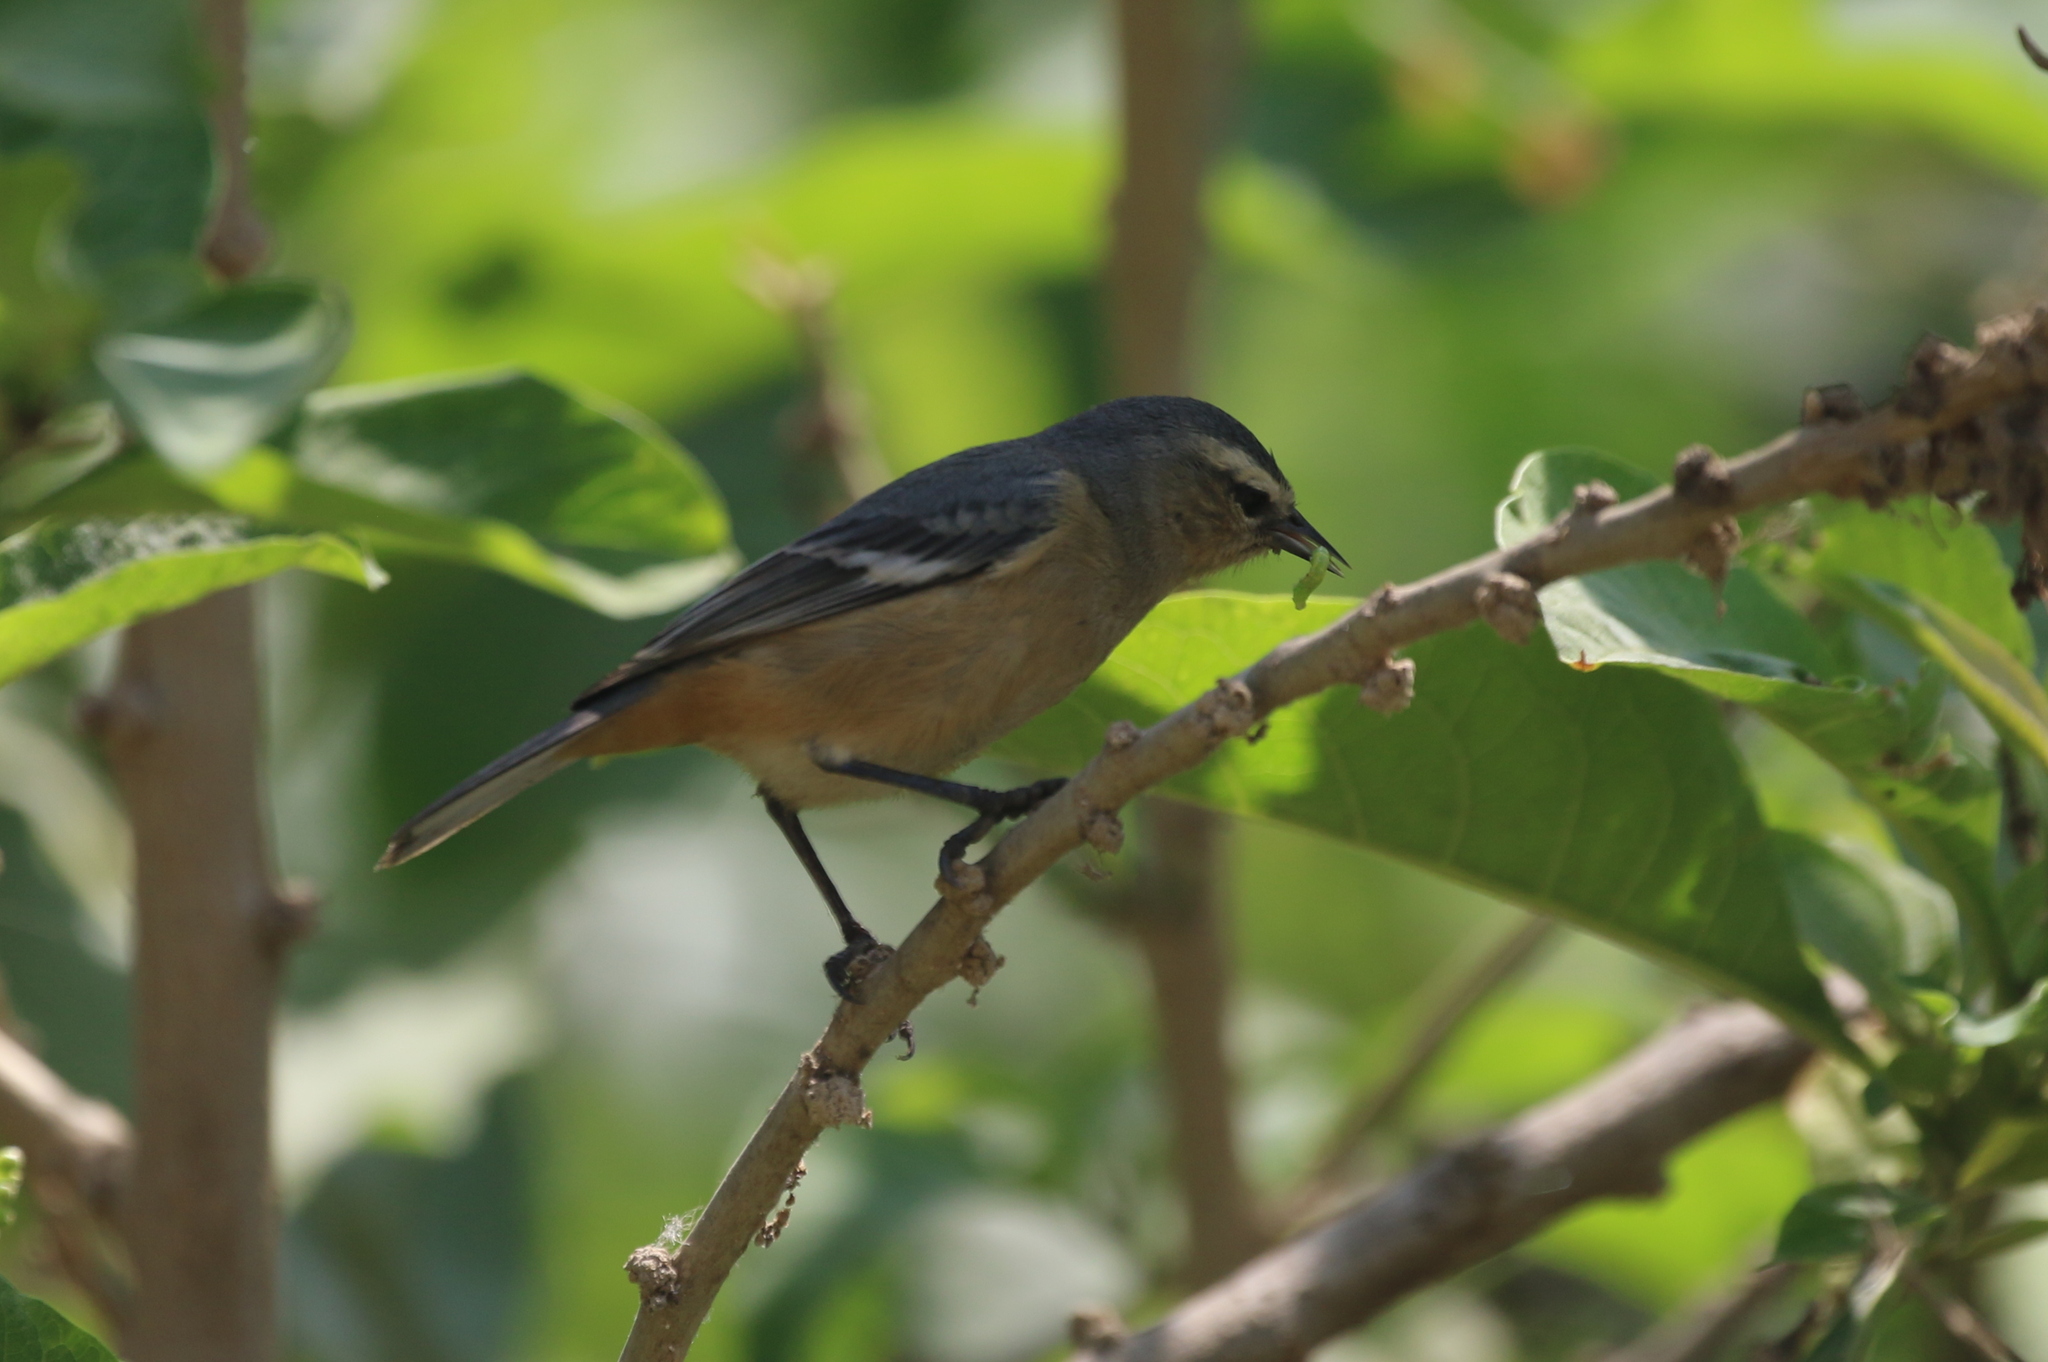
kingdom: Animalia
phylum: Chordata
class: Aves
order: Passeriformes
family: Thraupidae
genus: Conirostrum
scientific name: Conirostrum cinereum
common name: Cinereous conebill
